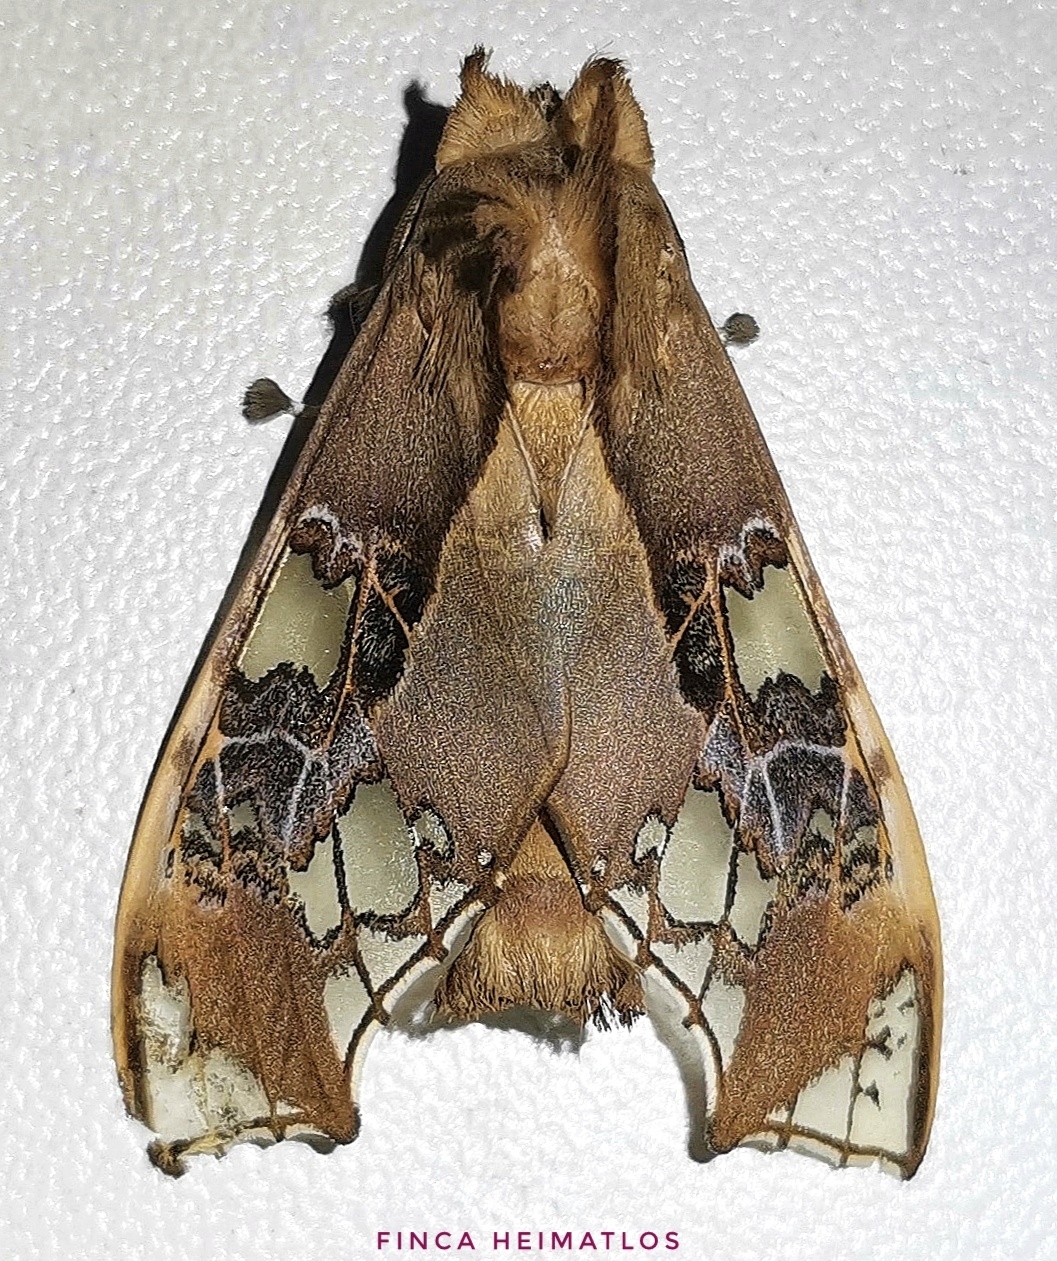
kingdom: Animalia
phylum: Arthropoda
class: Insecta
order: Lepidoptera
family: Erebidae
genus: Parathyris
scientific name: Parathyris cedonulli
